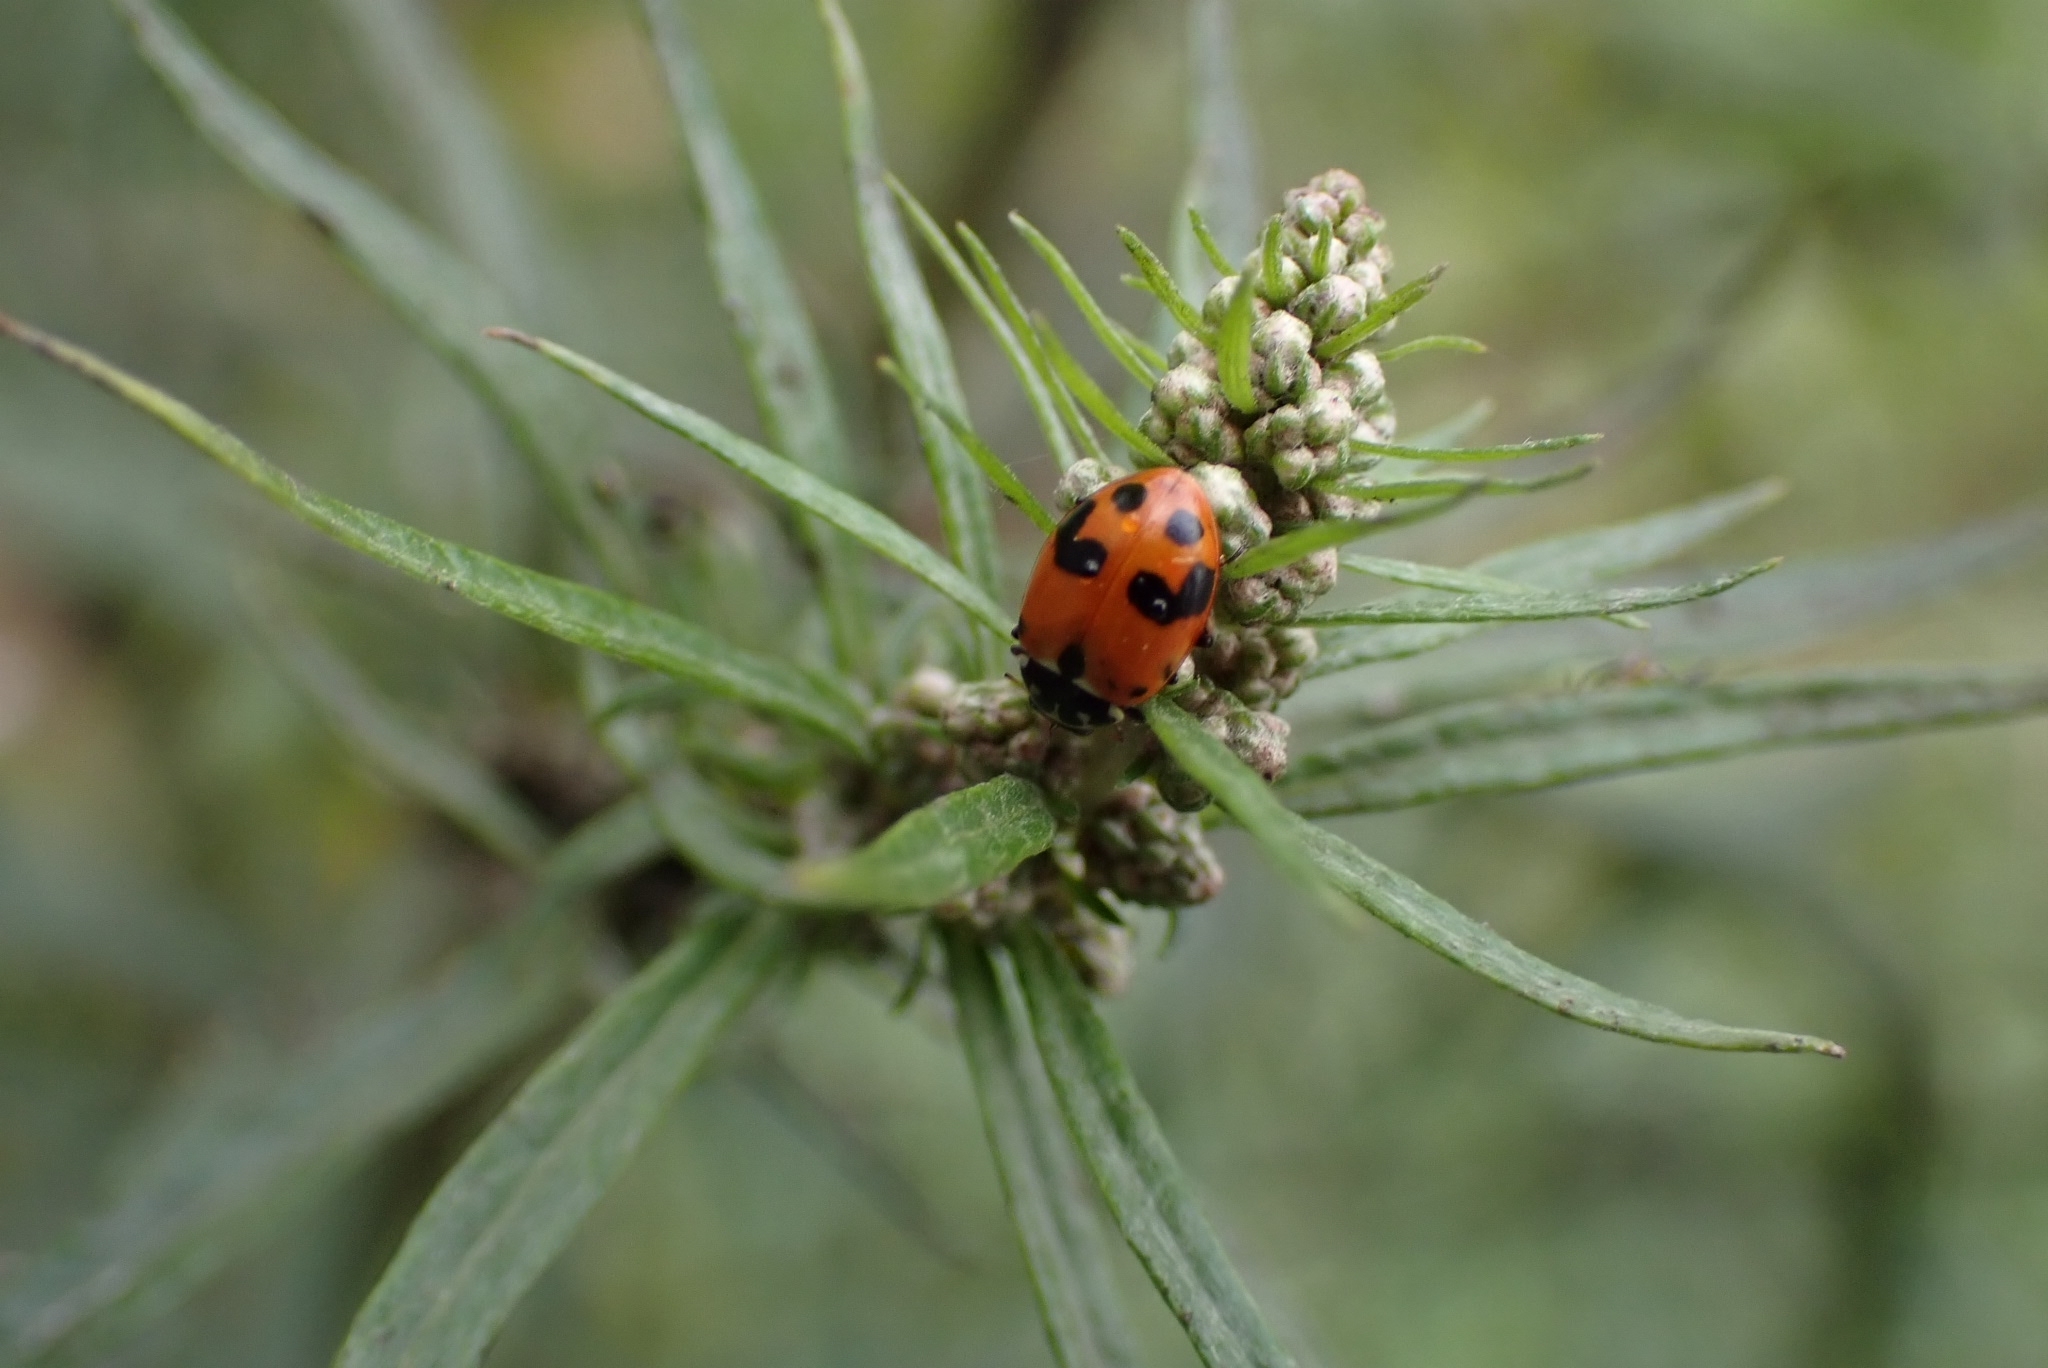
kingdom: Animalia
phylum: Arthropoda
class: Insecta
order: Coleoptera
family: Coccinellidae
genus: Hippodamia
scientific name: Hippodamia variegata
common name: Ladybird beetle
